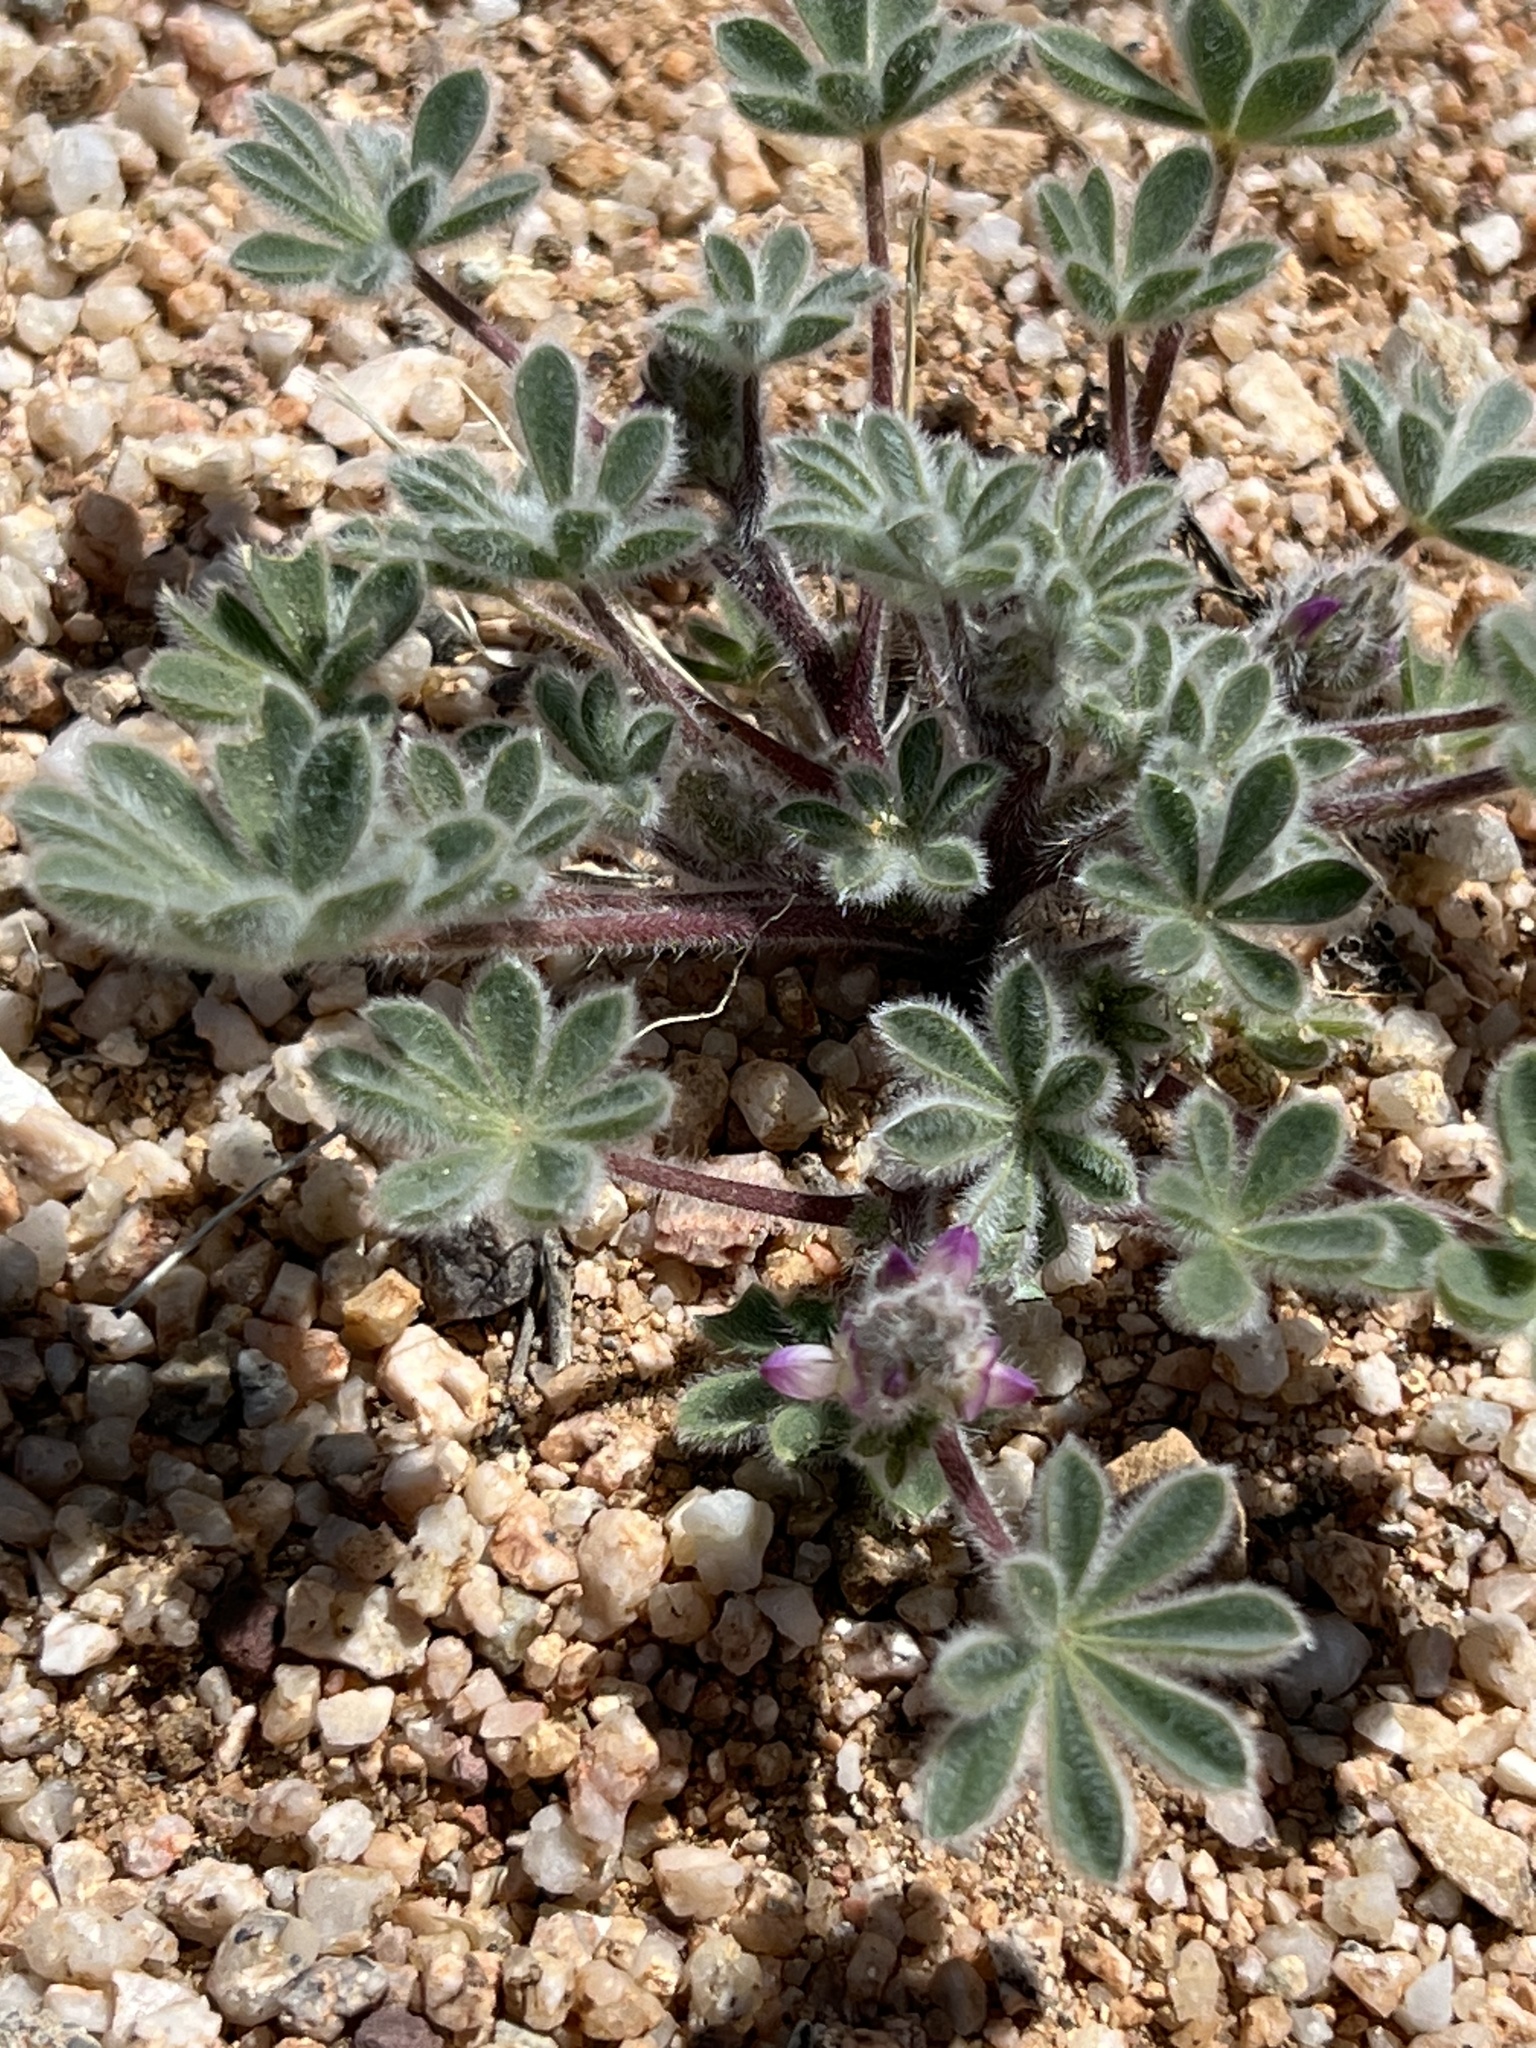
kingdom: Plantae
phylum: Tracheophyta
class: Magnoliopsida
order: Fabales
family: Fabaceae
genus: Lupinus
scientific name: Lupinus concinnus
